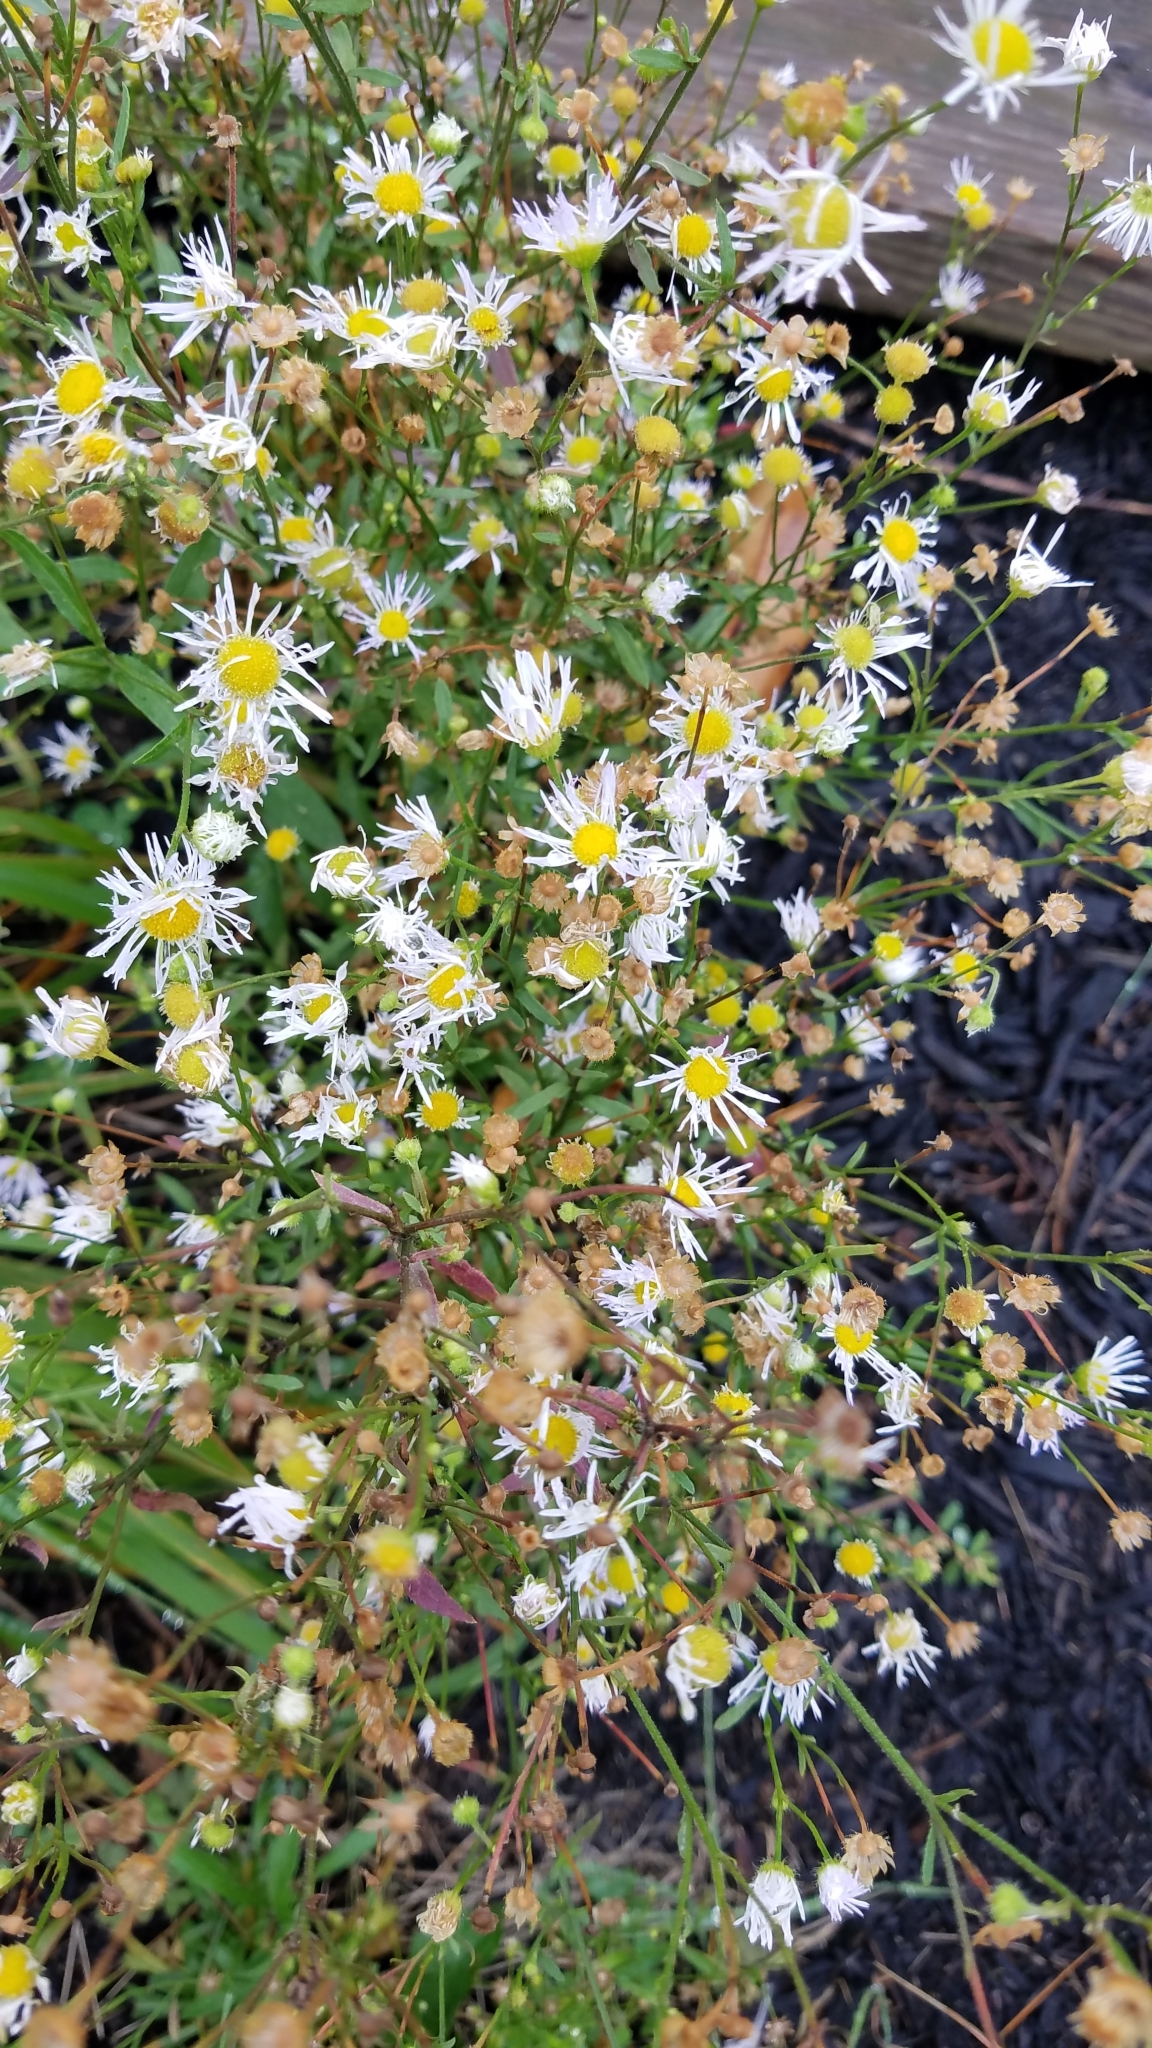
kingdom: Plantae
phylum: Tracheophyta
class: Magnoliopsida
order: Asterales
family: Asteraceae
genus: Erigeron
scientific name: Erigeron strigosus
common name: Common eastern fleabane
